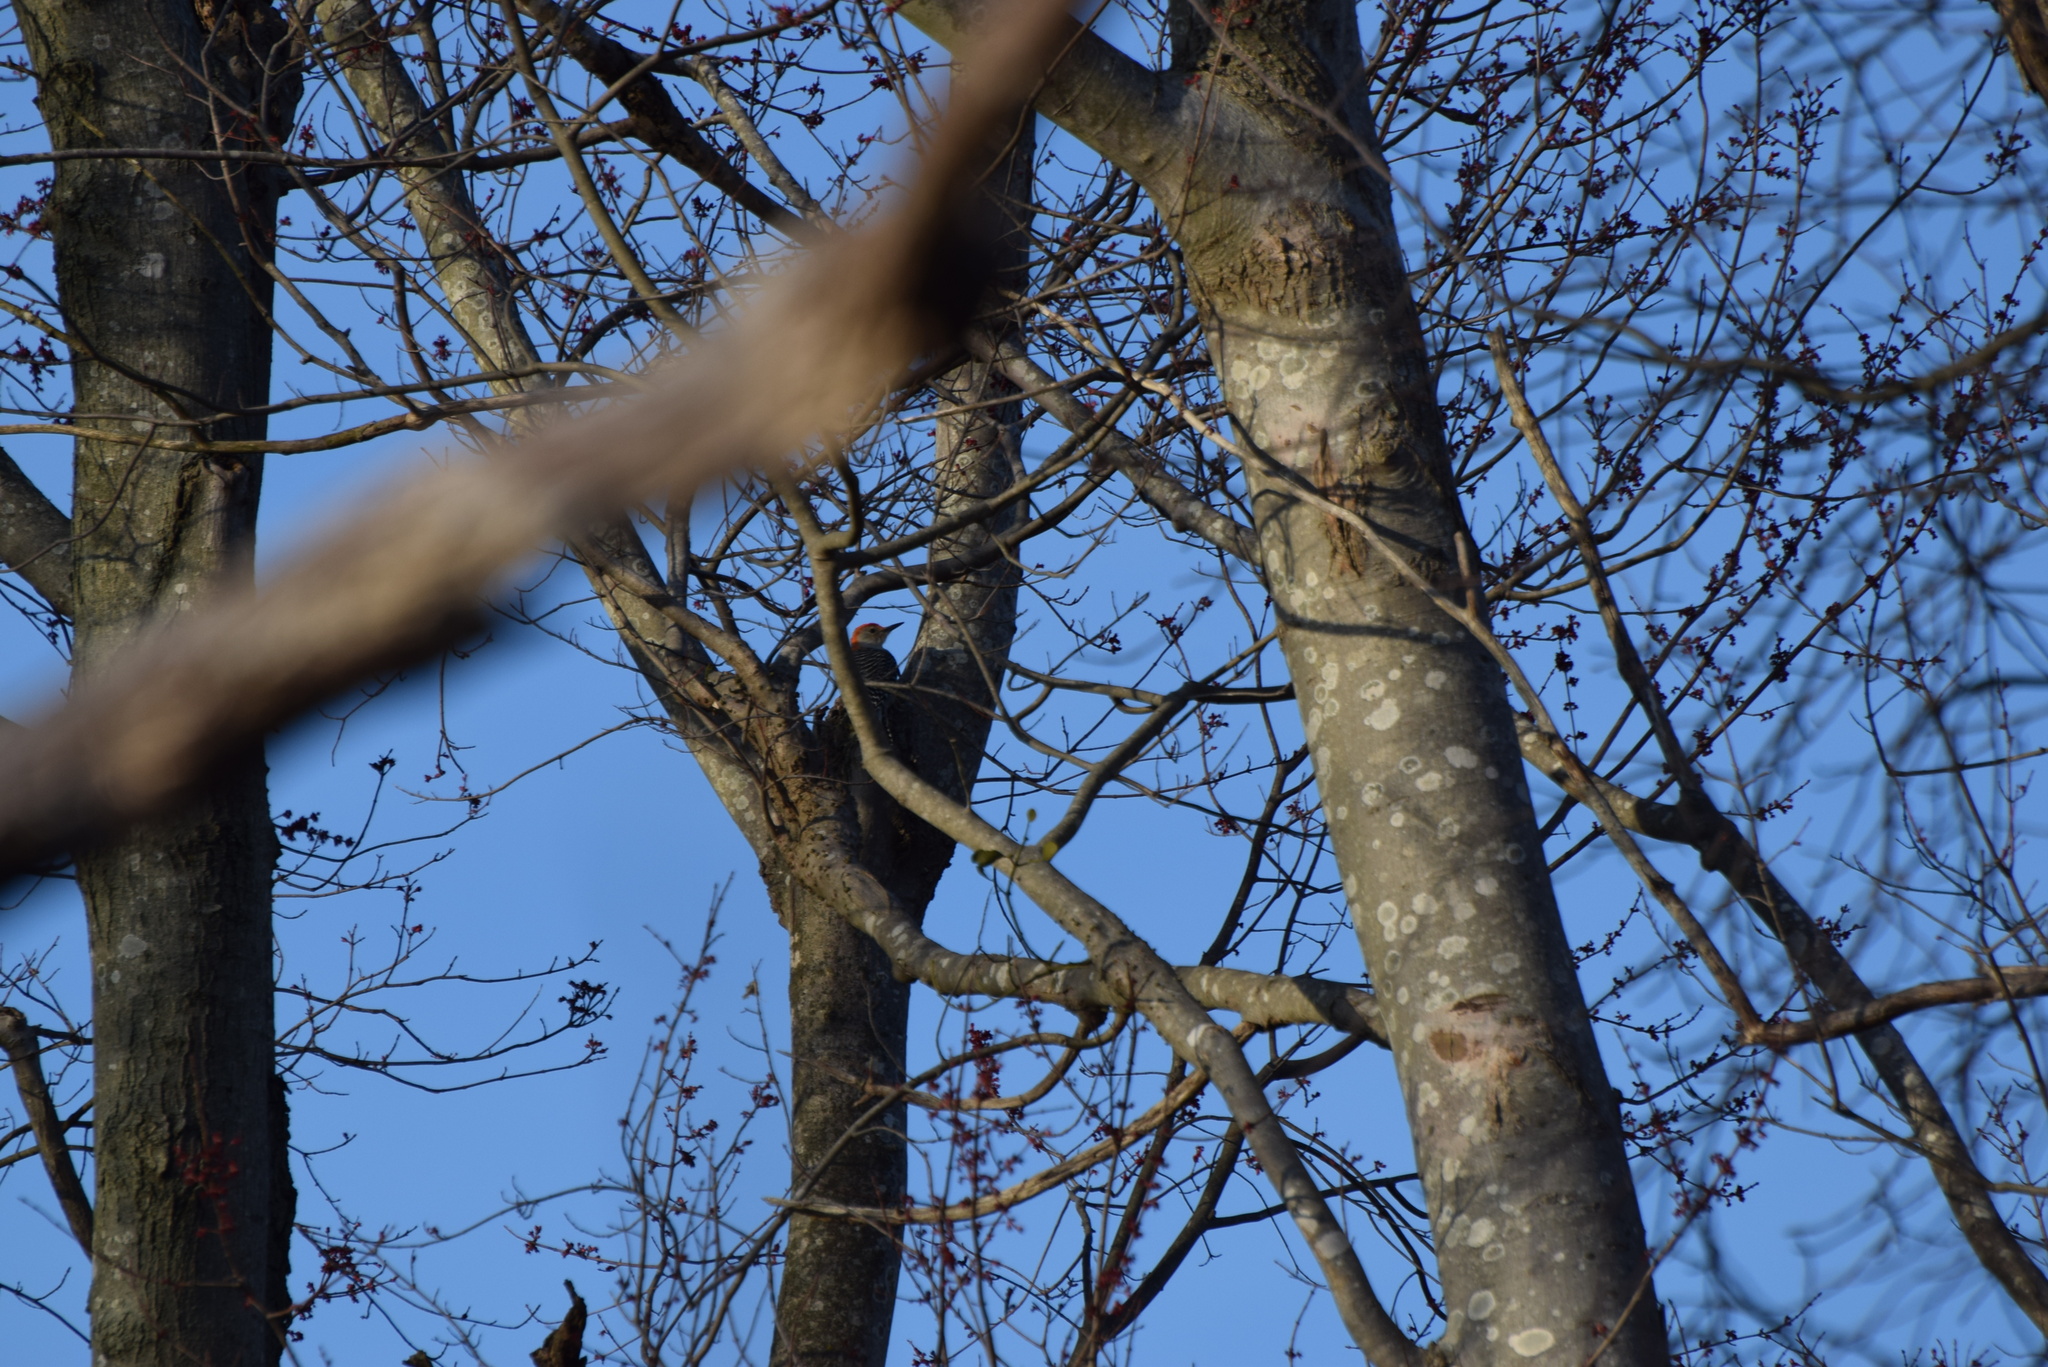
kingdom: Animalia
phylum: Chordata
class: Aves
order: Piciformes
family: Picidae
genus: Melanerpes
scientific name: Melanerpes carolinus
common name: Red-bellied woodpecker
